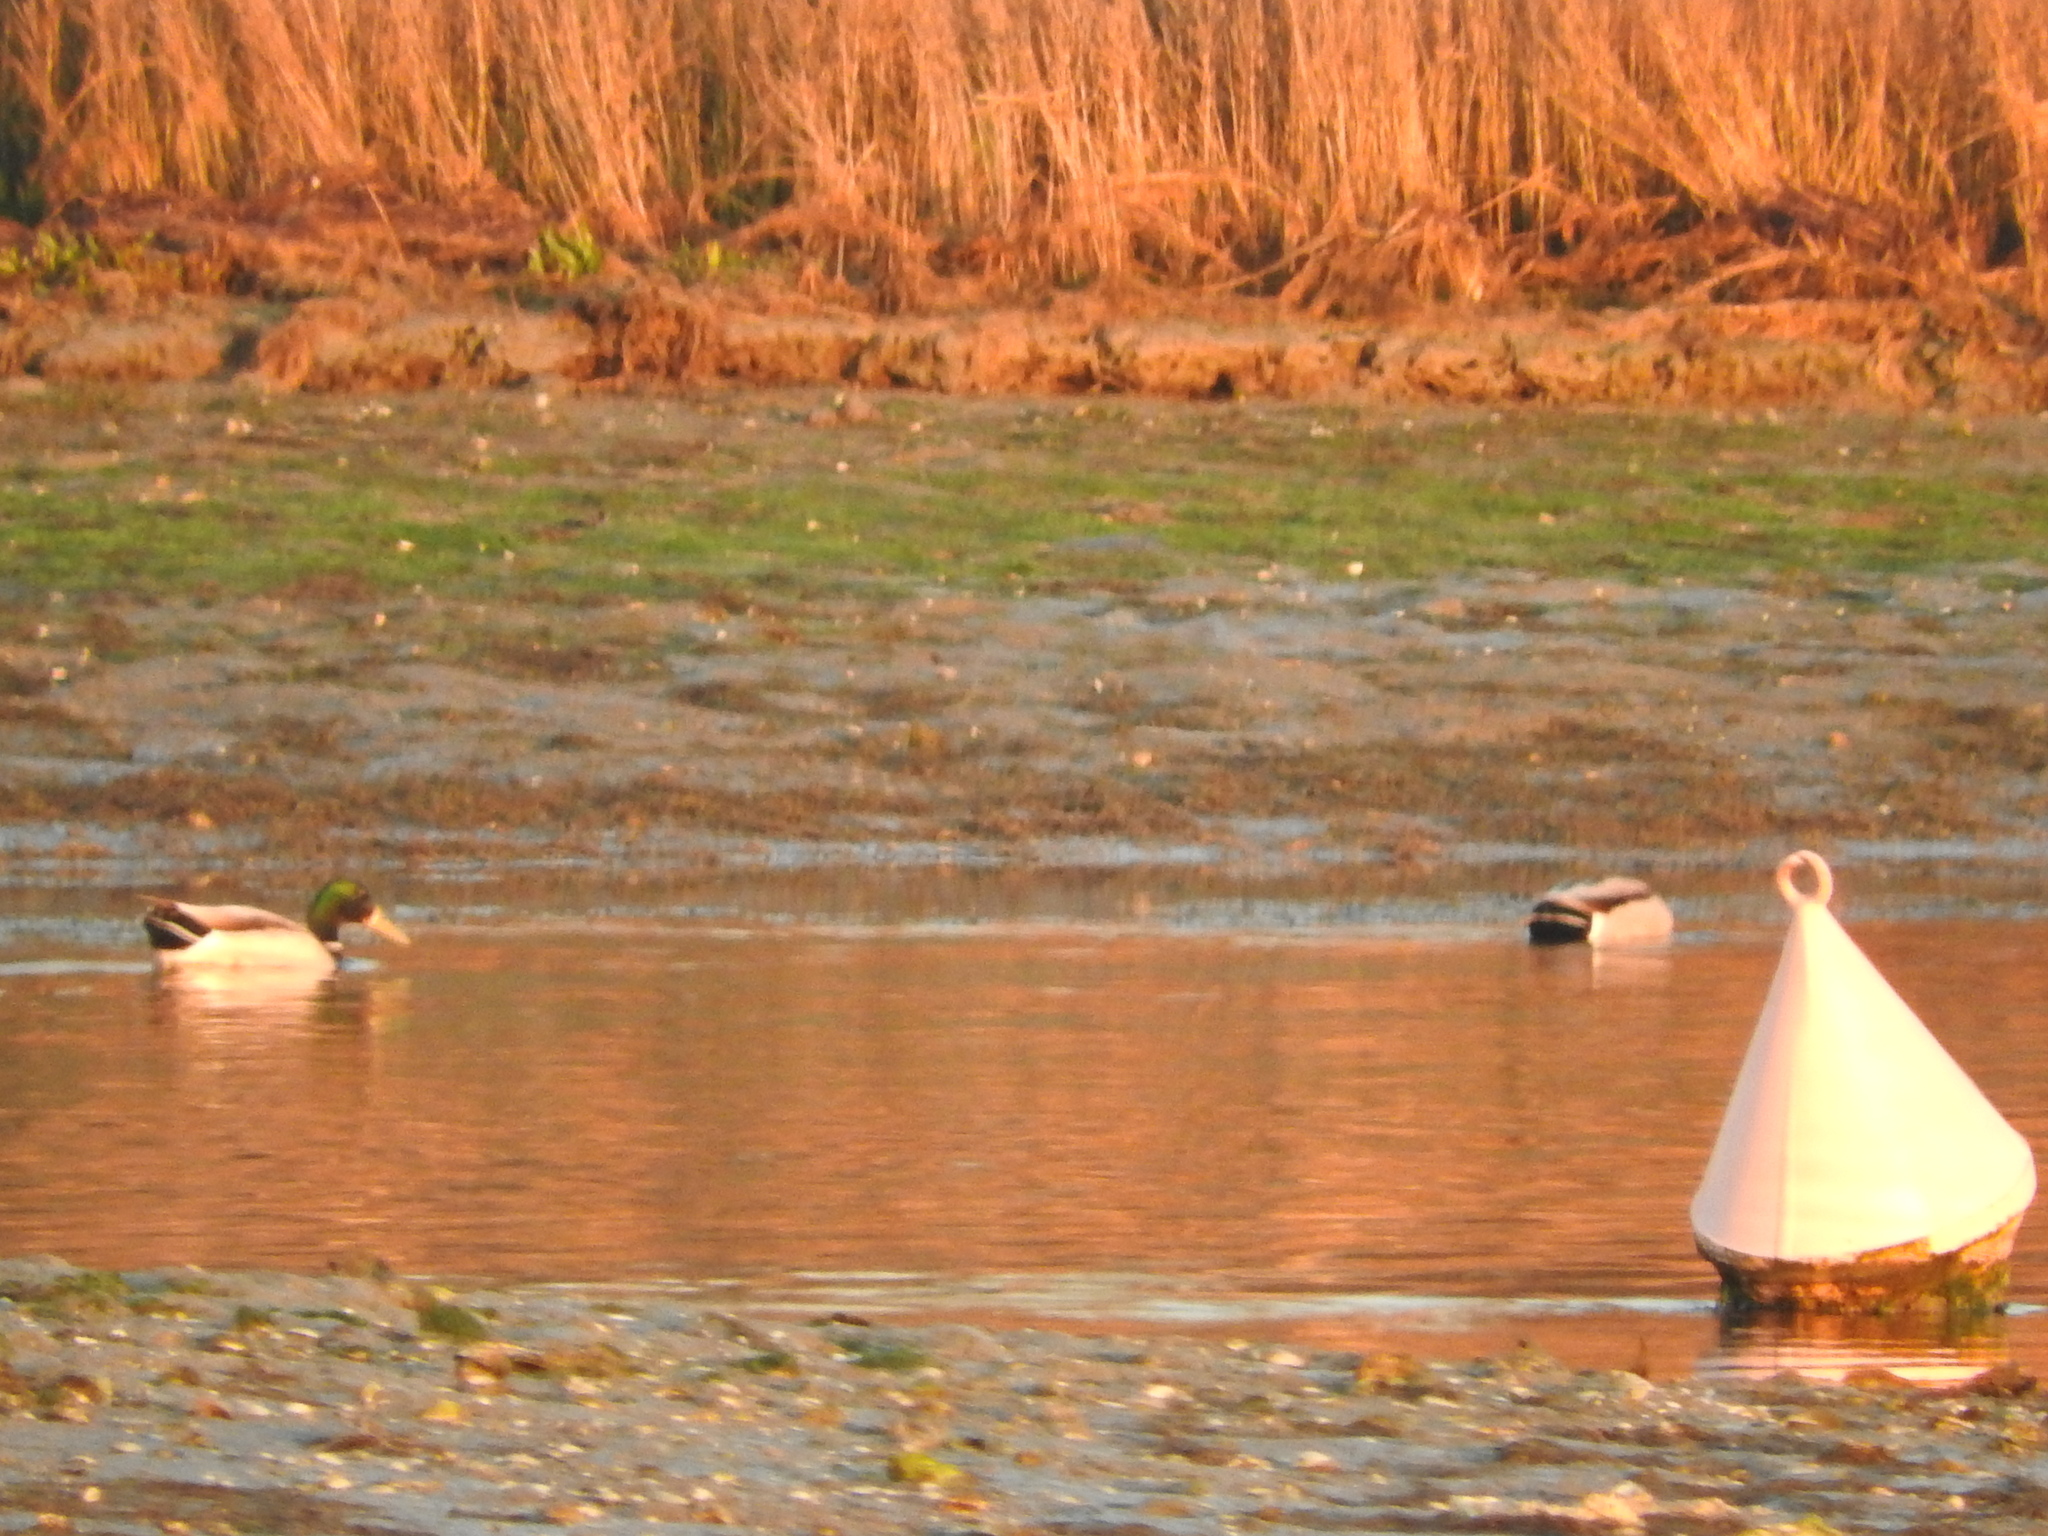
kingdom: Animalia
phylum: Chordata
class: Aves
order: Anseriformes
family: Anatidae
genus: Anas
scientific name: Anas platyrhynchos
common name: Mallard
